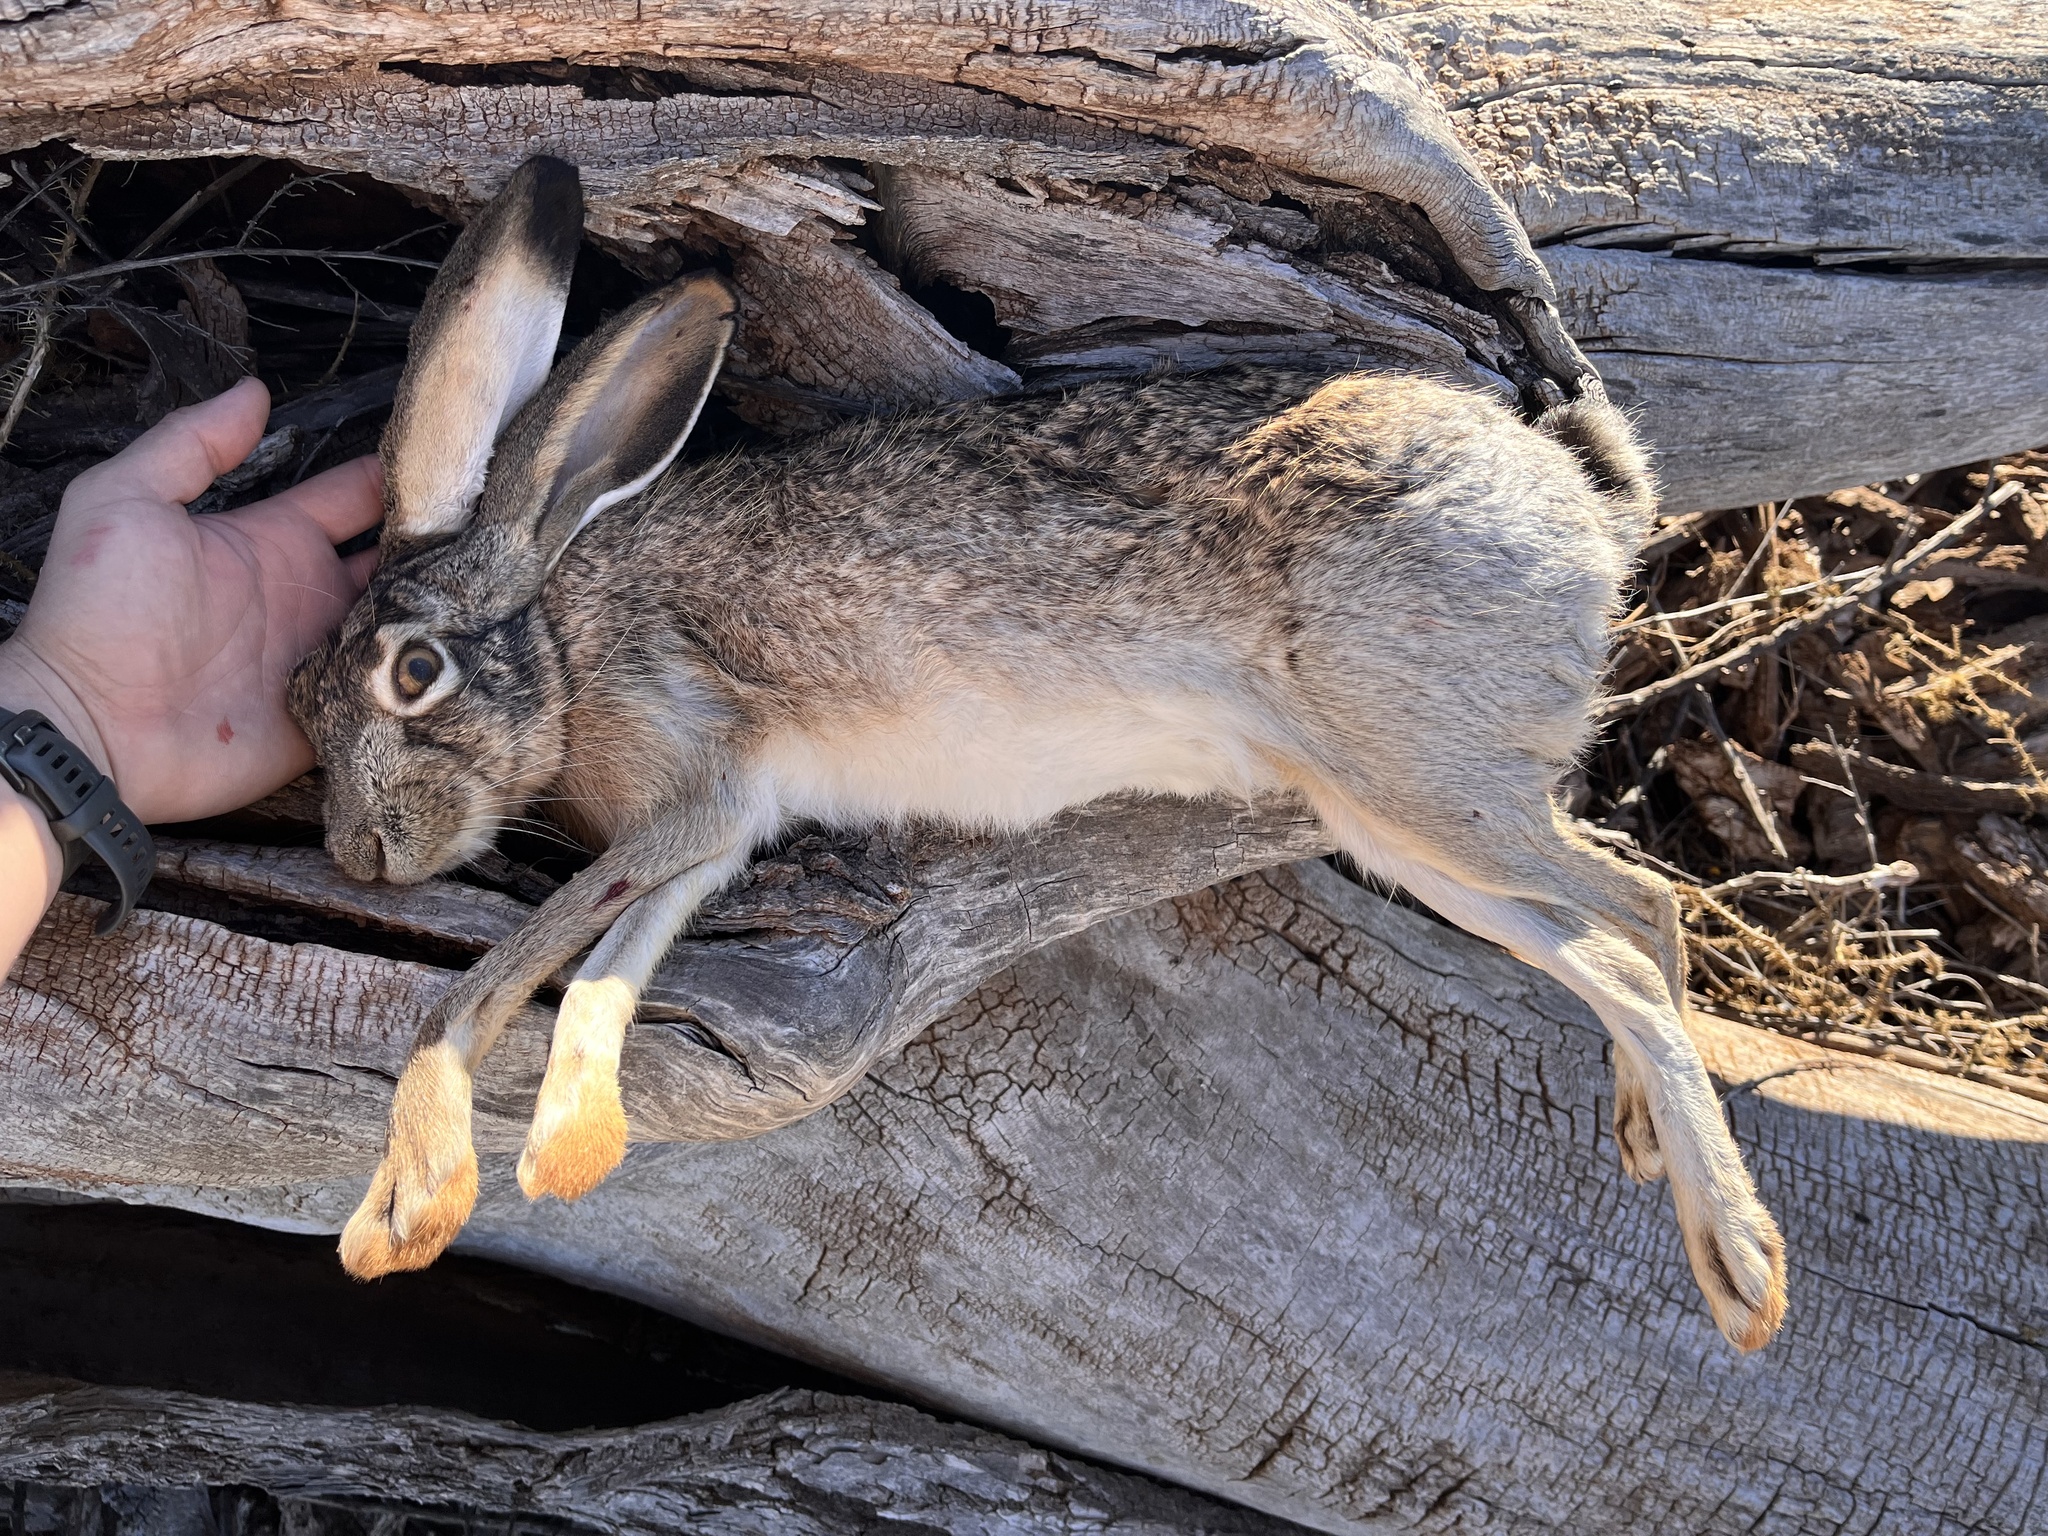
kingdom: Animalia
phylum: Chordata
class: Mammalia
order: Lagomorpha
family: Leporidae
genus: Lepus
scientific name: Lepus californicus
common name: Black-tailed jackrabbit
